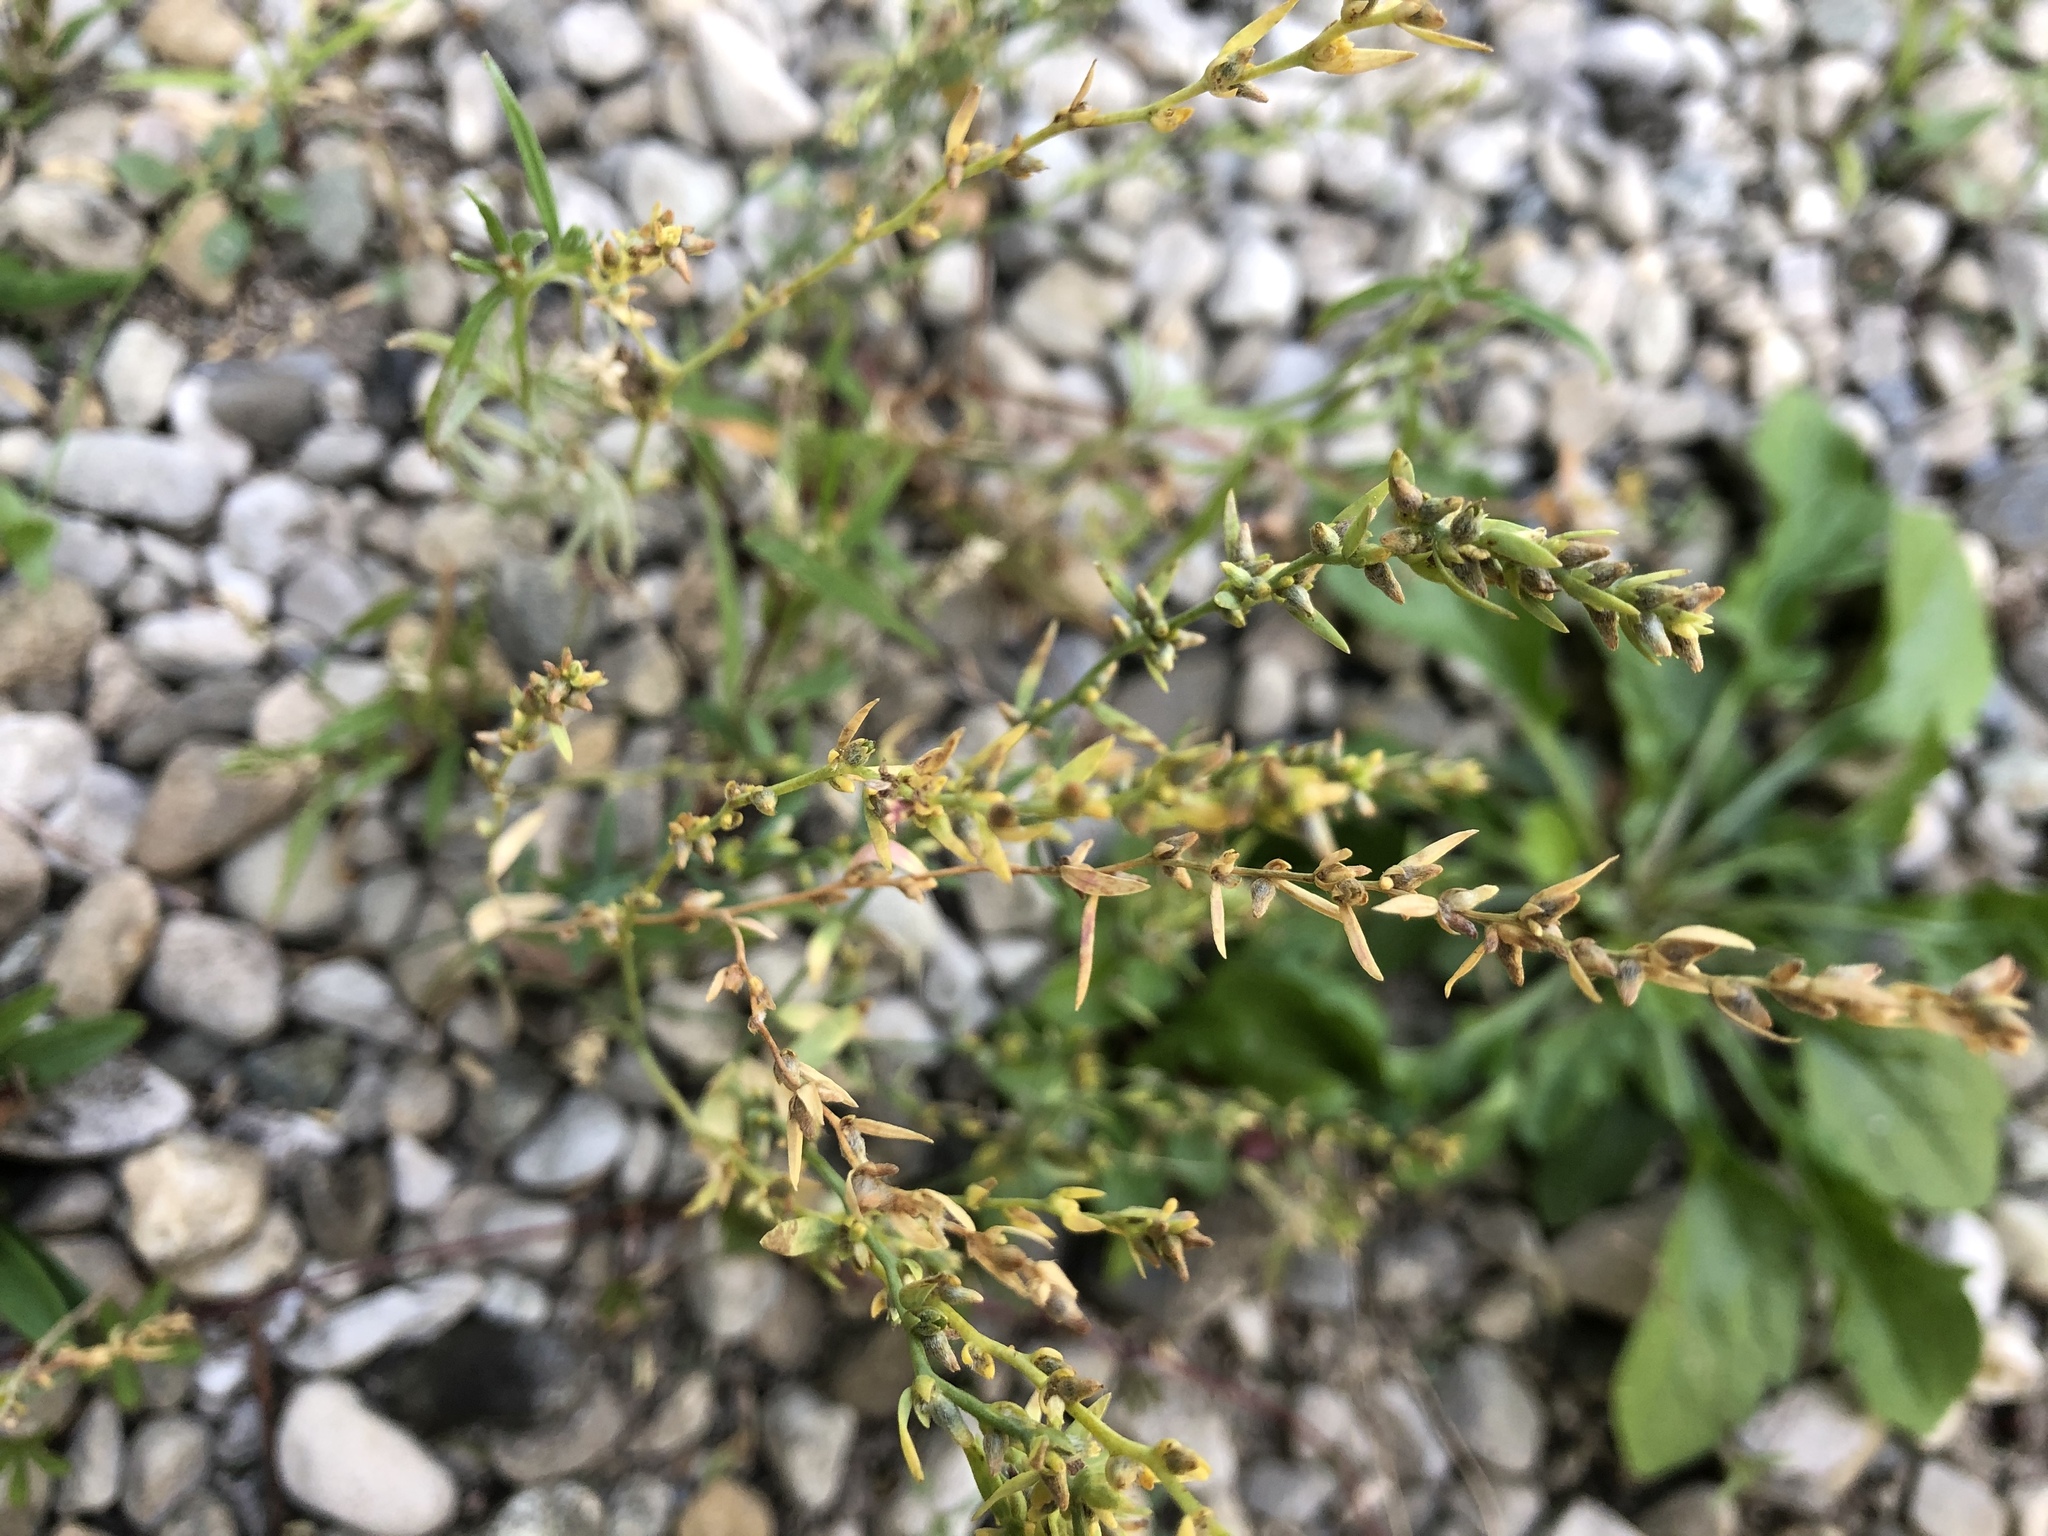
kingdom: Plantae
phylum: Tracheophyta
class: Magnoliopsida
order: Malvales
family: Thymelaeaceae
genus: Thymelaea
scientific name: Thymelaea passerina
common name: Annual thymelaea
